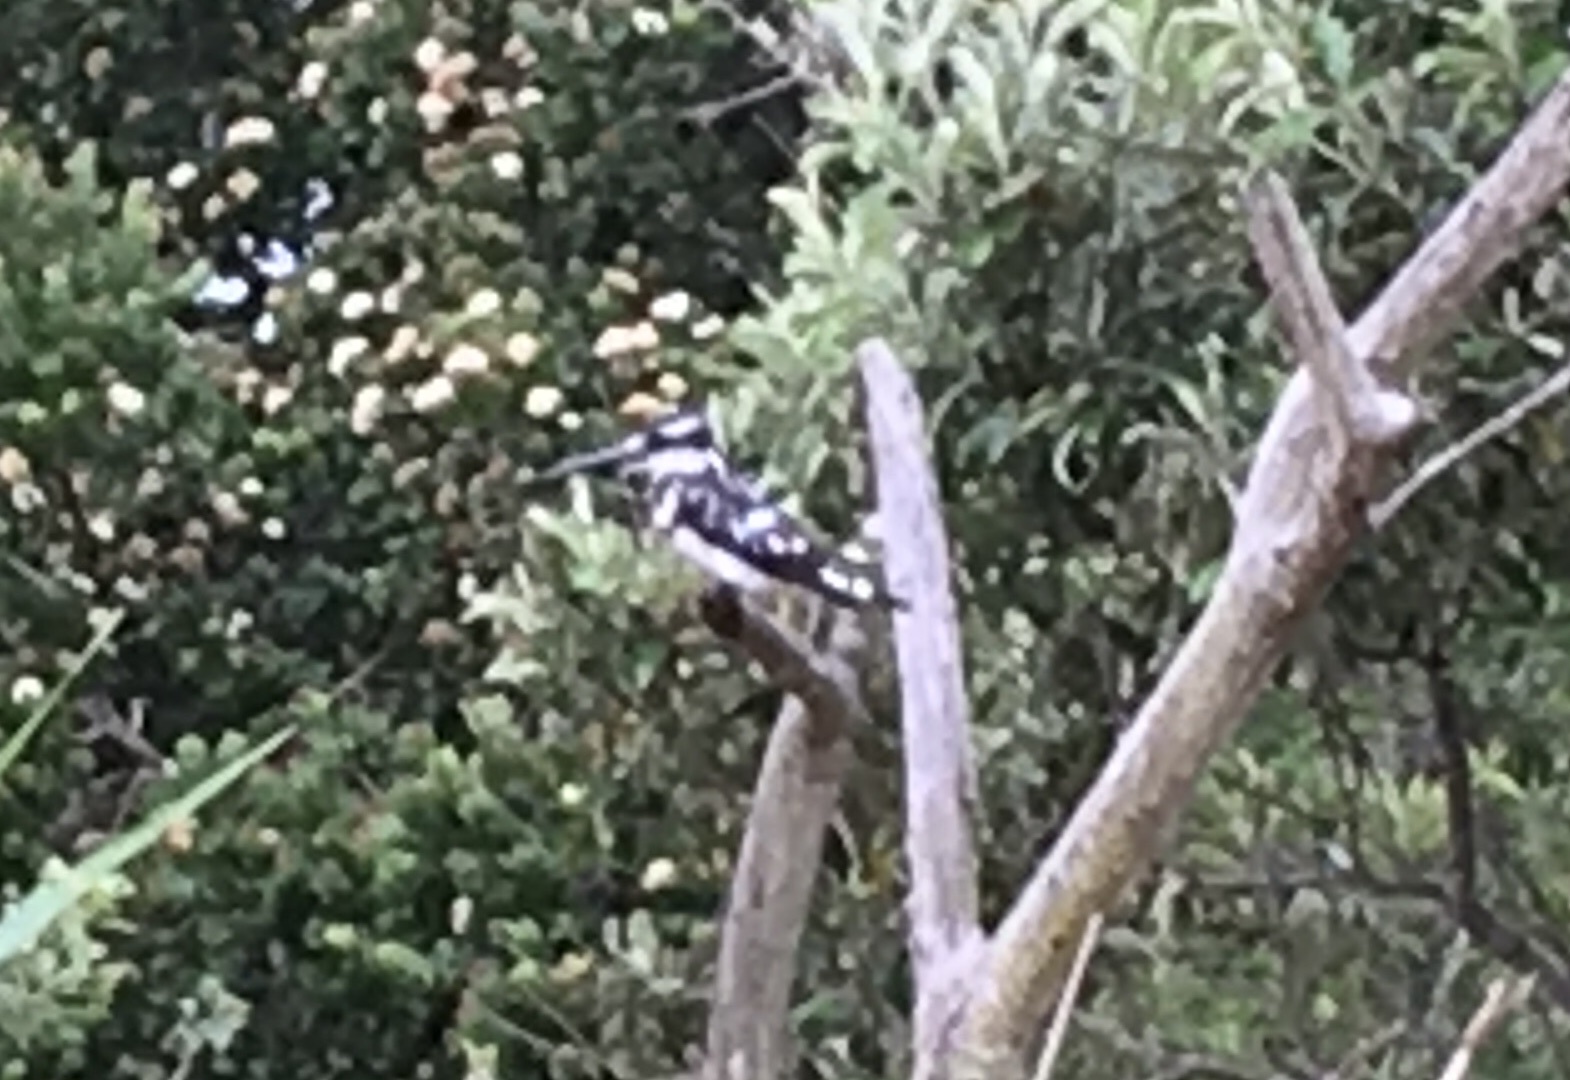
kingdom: Animalia
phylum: Chordata
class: Aves
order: Coraciiformes
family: Alcedinidae
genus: Ceryle
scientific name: Ceryle rudis
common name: Pied kingfisher
